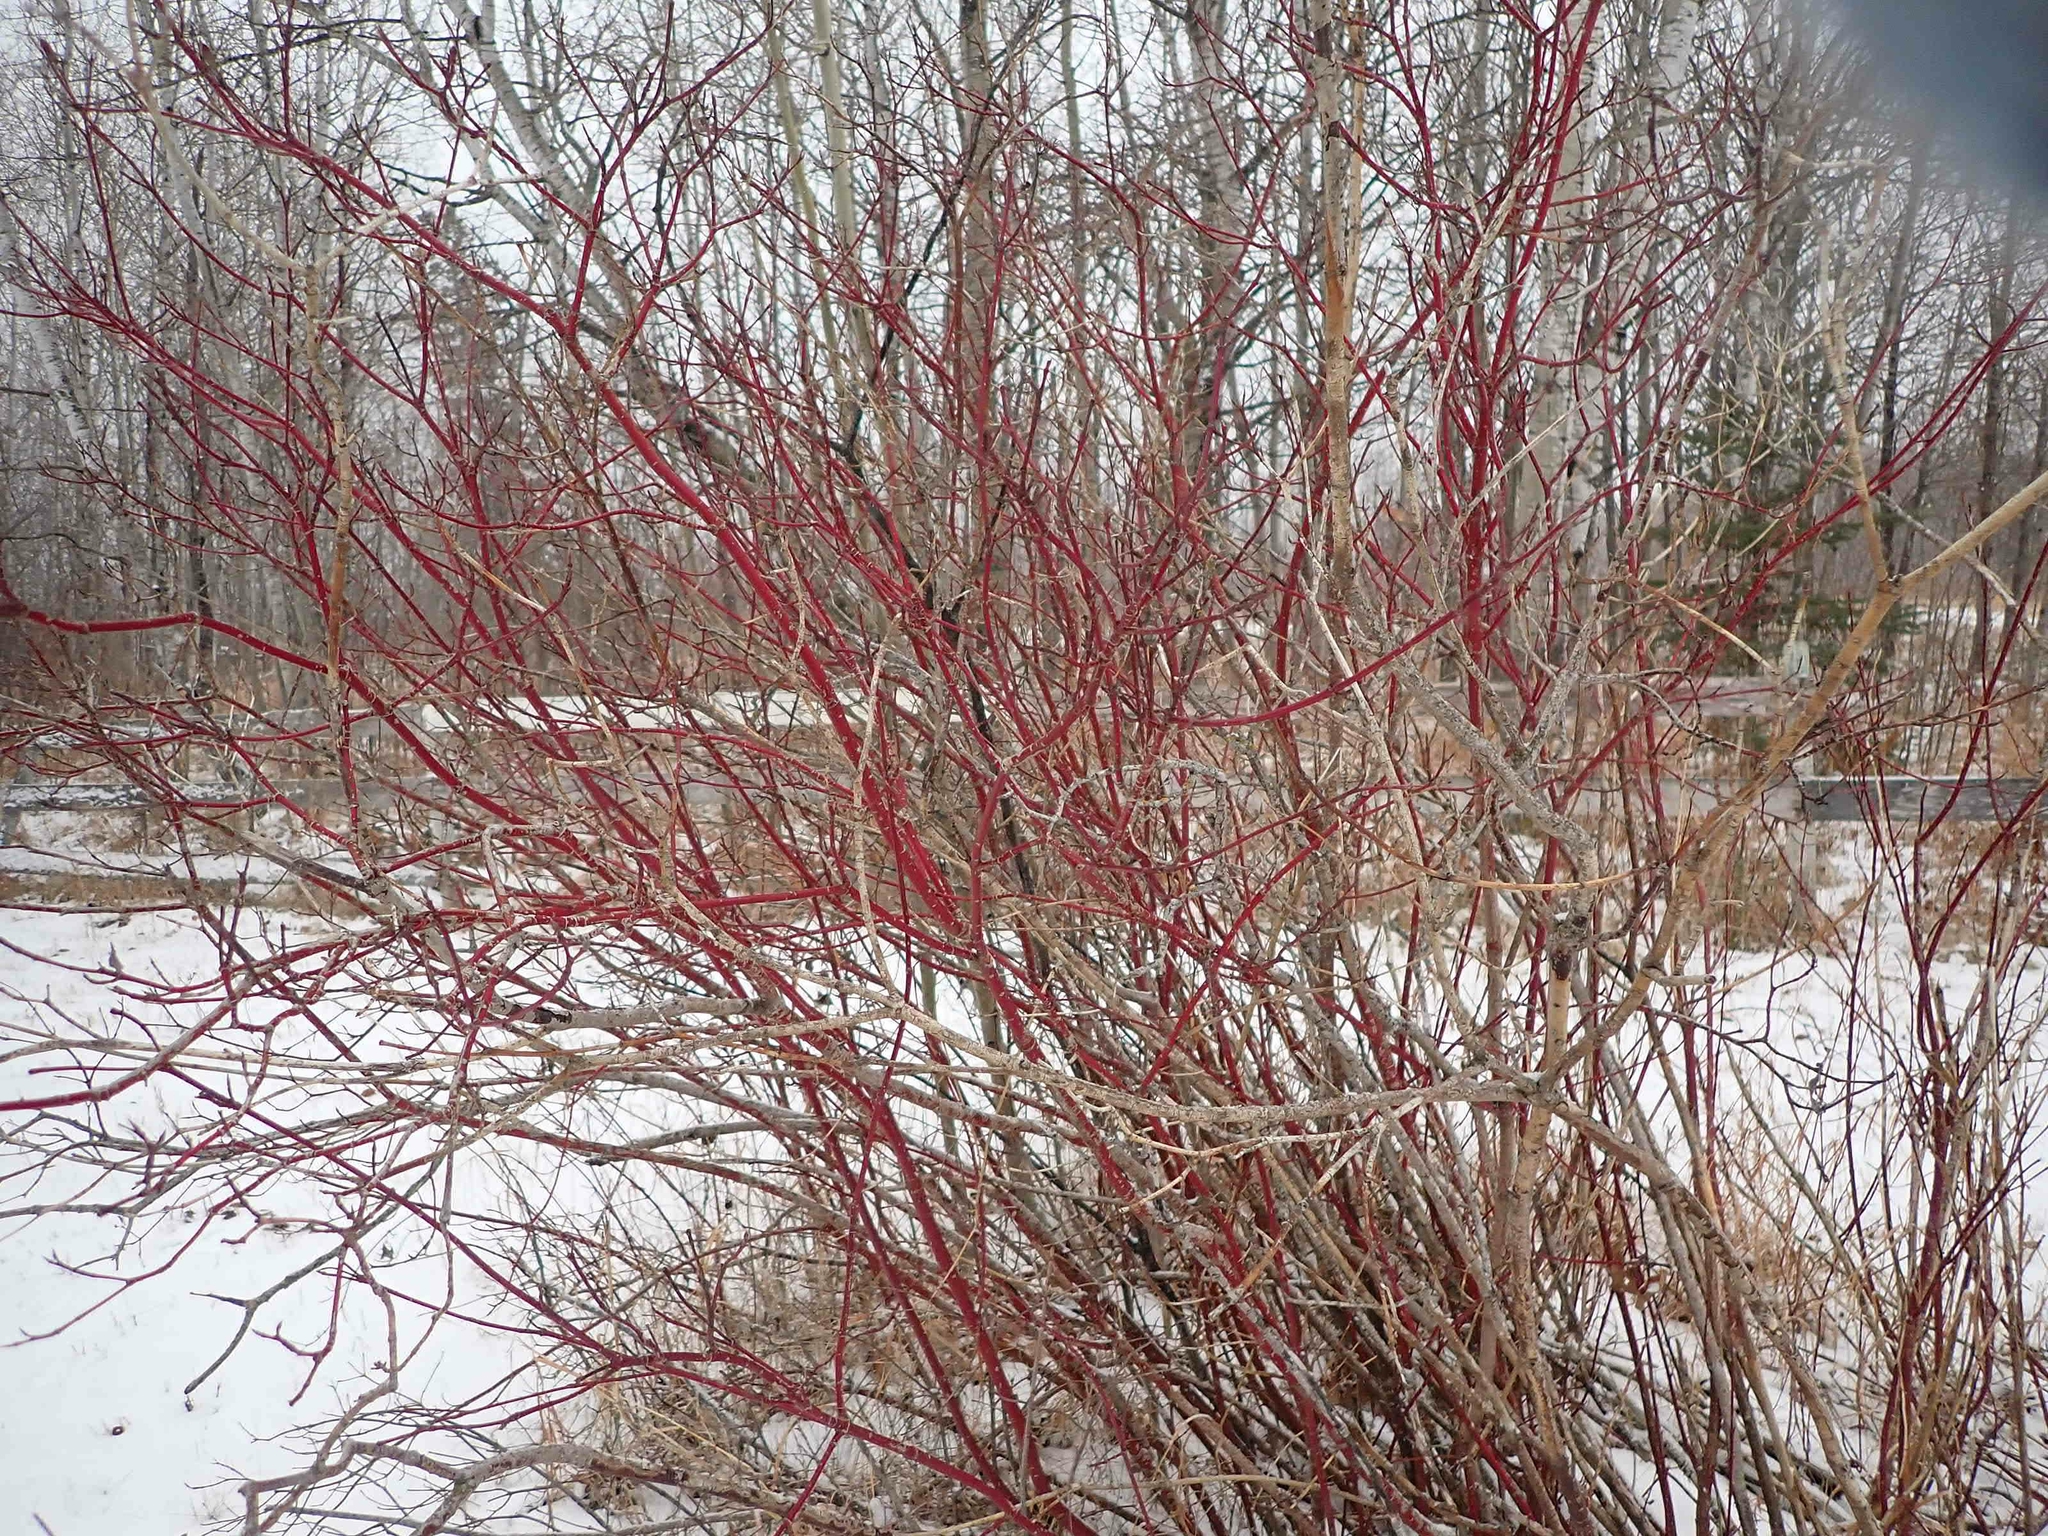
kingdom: Plantae
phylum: Tracheophyta
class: Magnoliopsida
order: Cornales
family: Cornaceae
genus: Cornus
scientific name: Cornus sericea
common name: Red-osier dogwood
